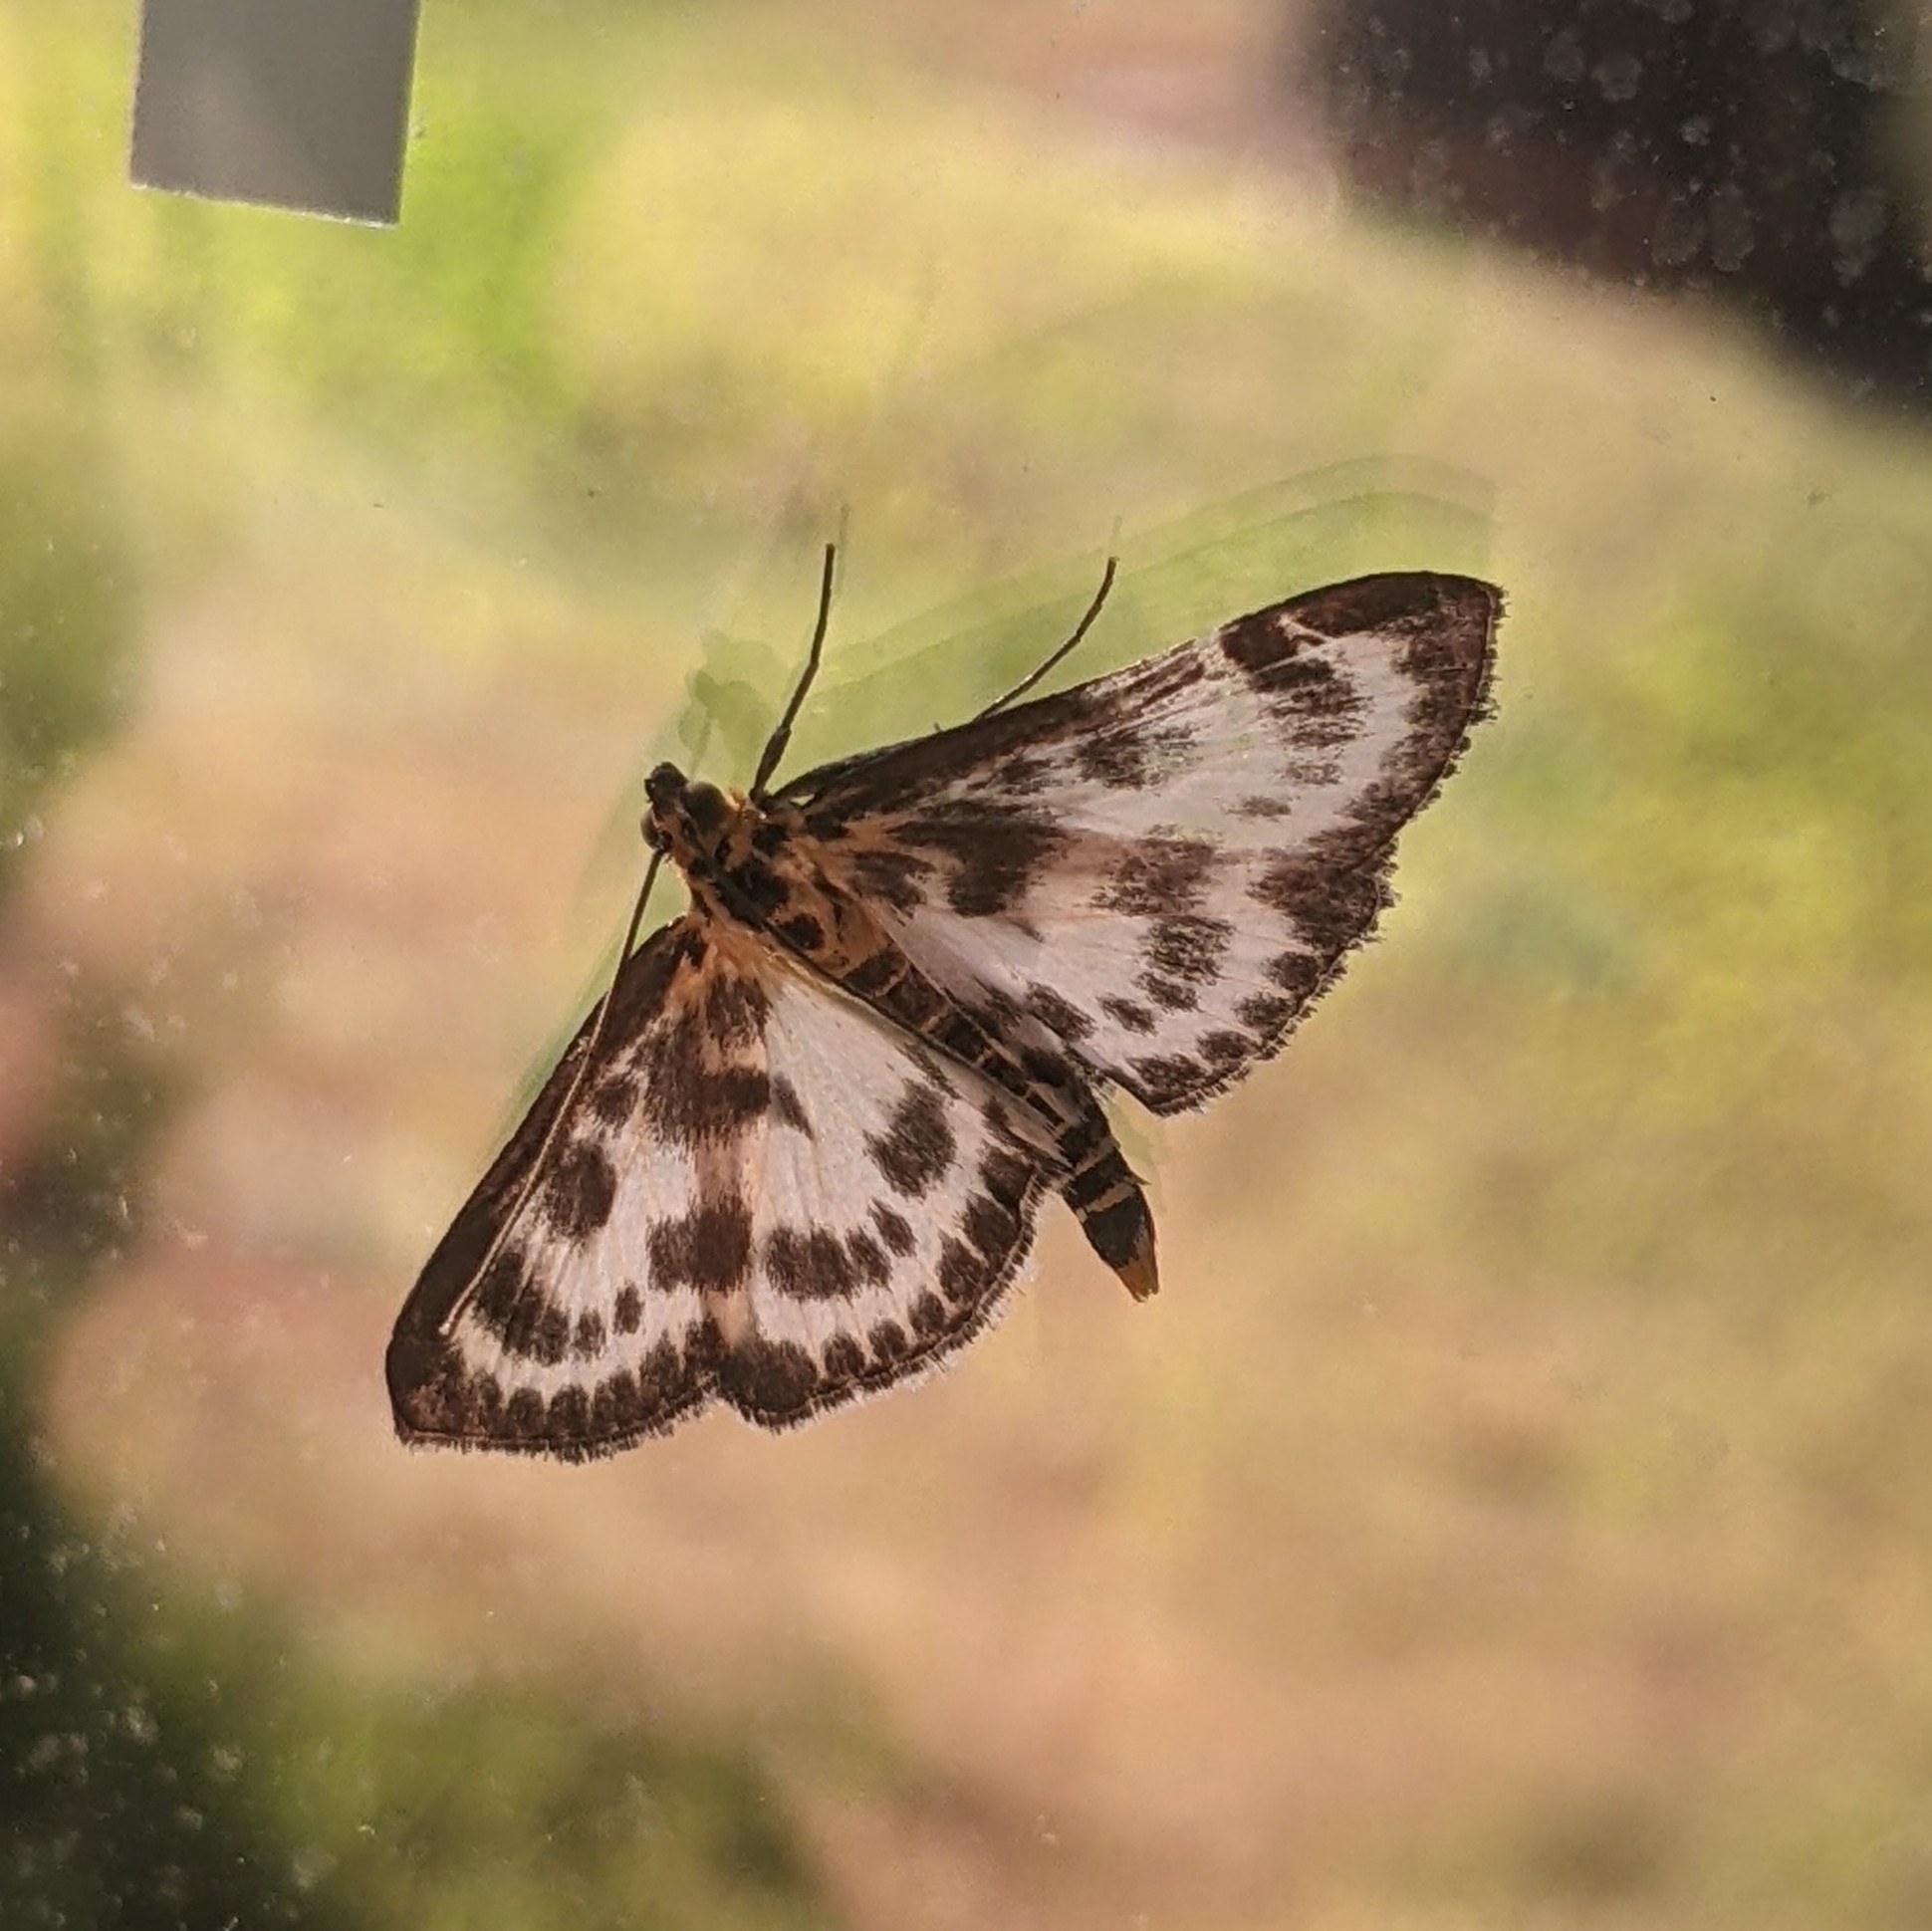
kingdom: Animalia
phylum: Arthropoda
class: Insecta
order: Lepidoptera
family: Crambidae
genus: Anania
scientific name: Anania hortulata
